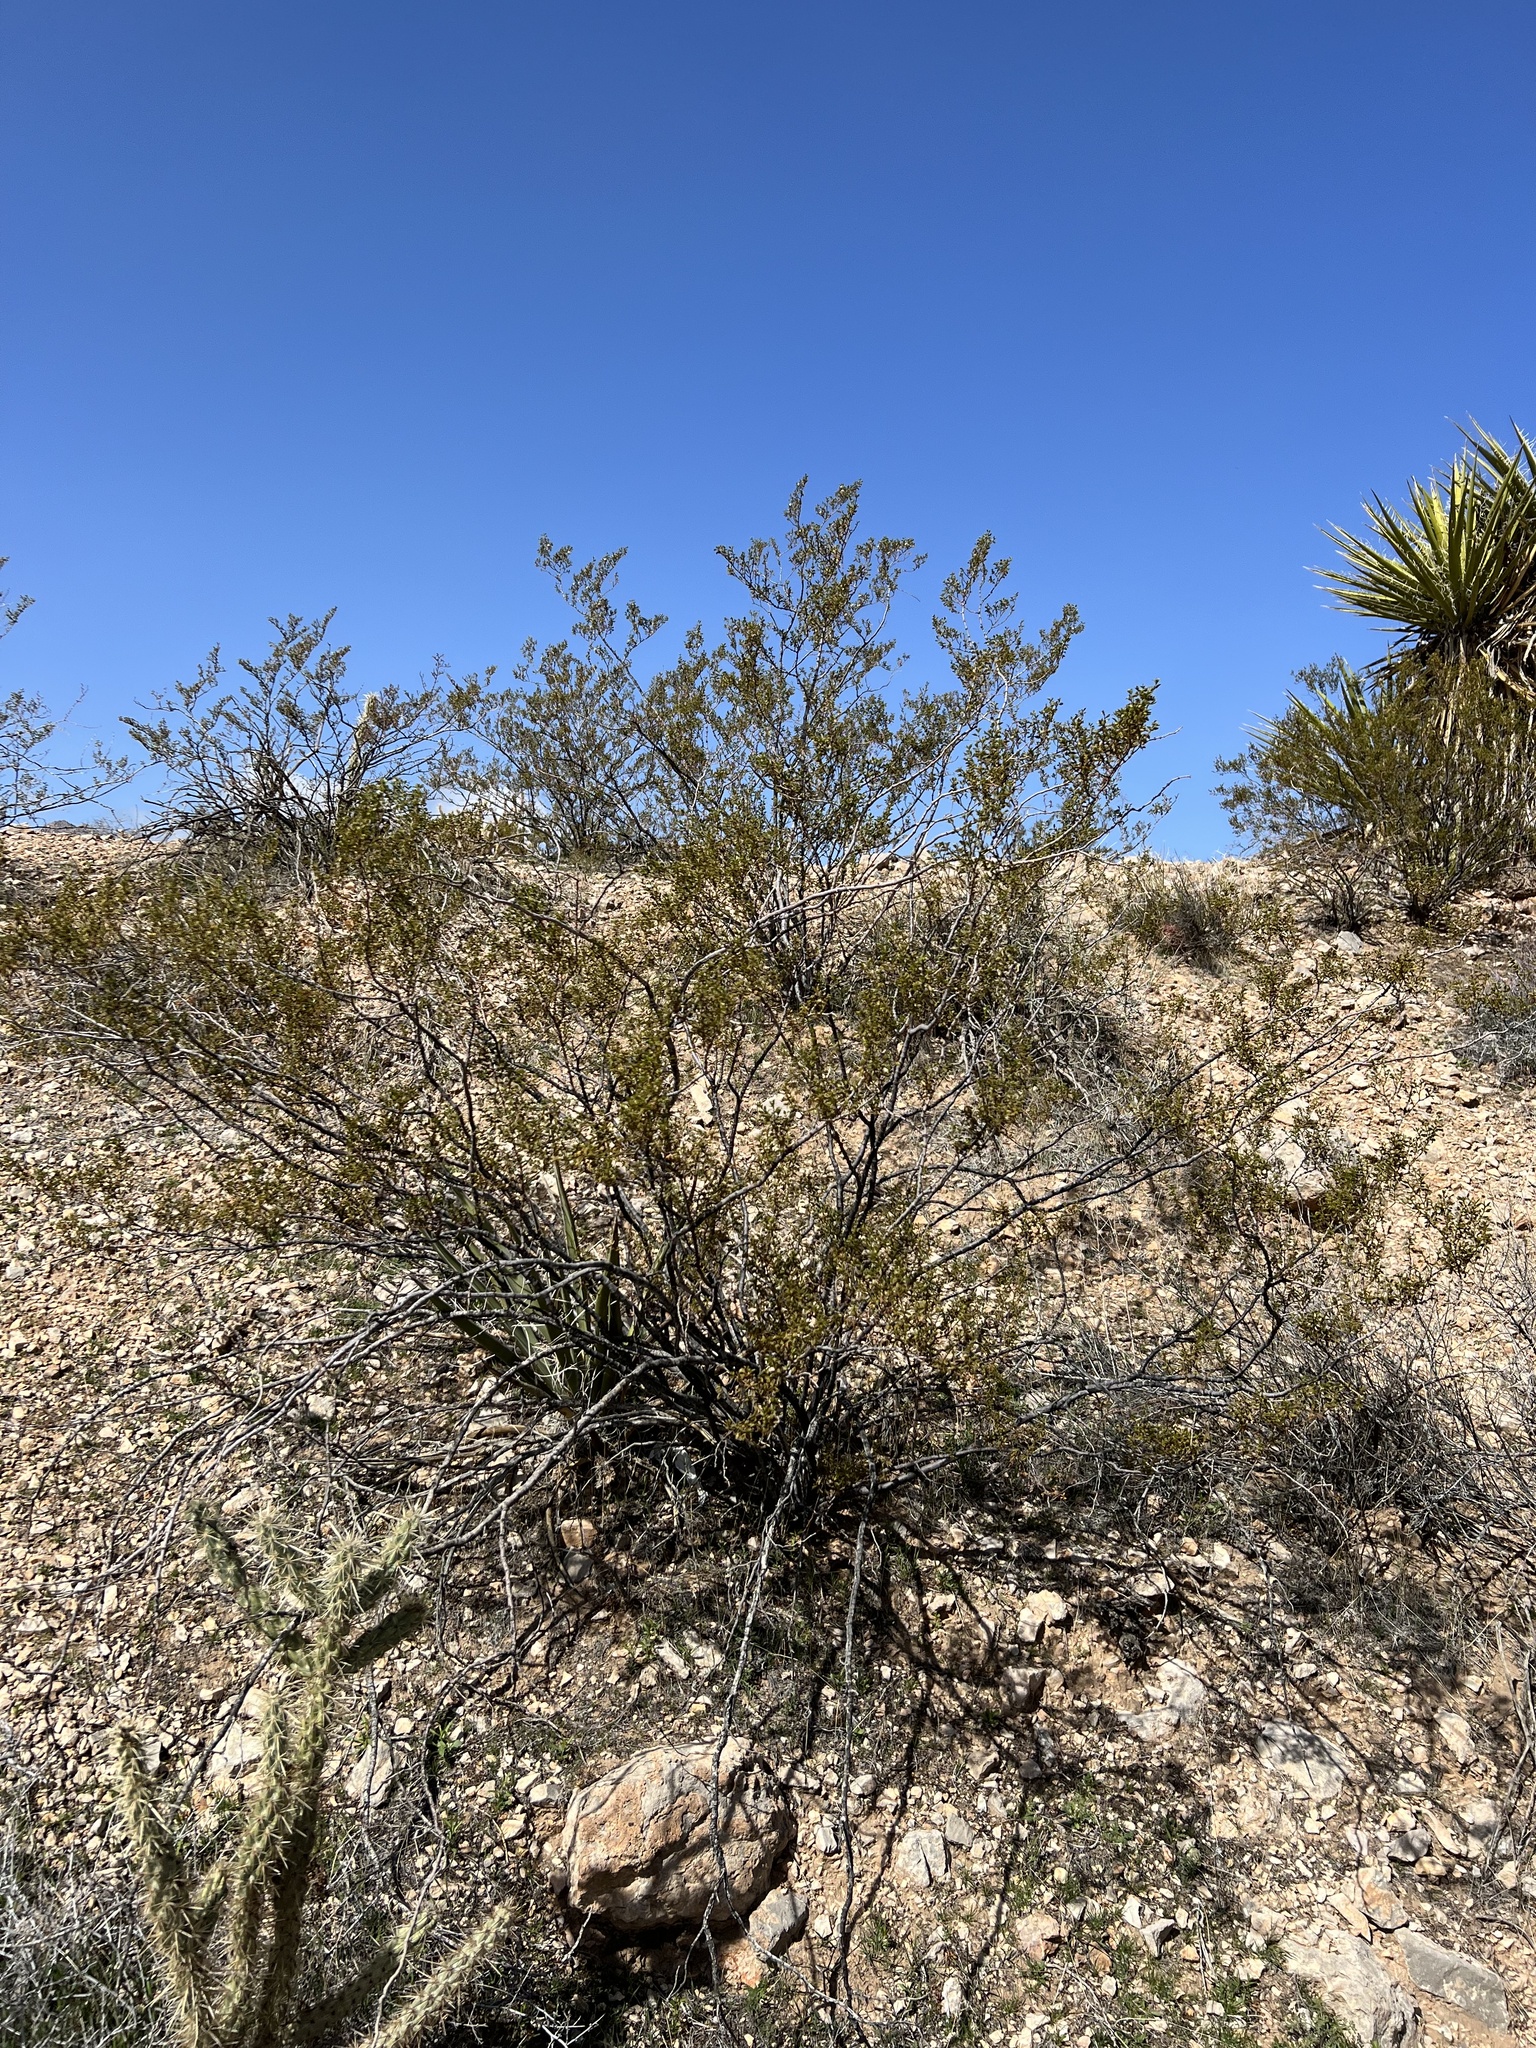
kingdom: Plantae
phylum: Tracheophyta
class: Magnoliopsida
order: Zygophyllales
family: Zygophyllaceae
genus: Larrea
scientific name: Larrea tridentata
